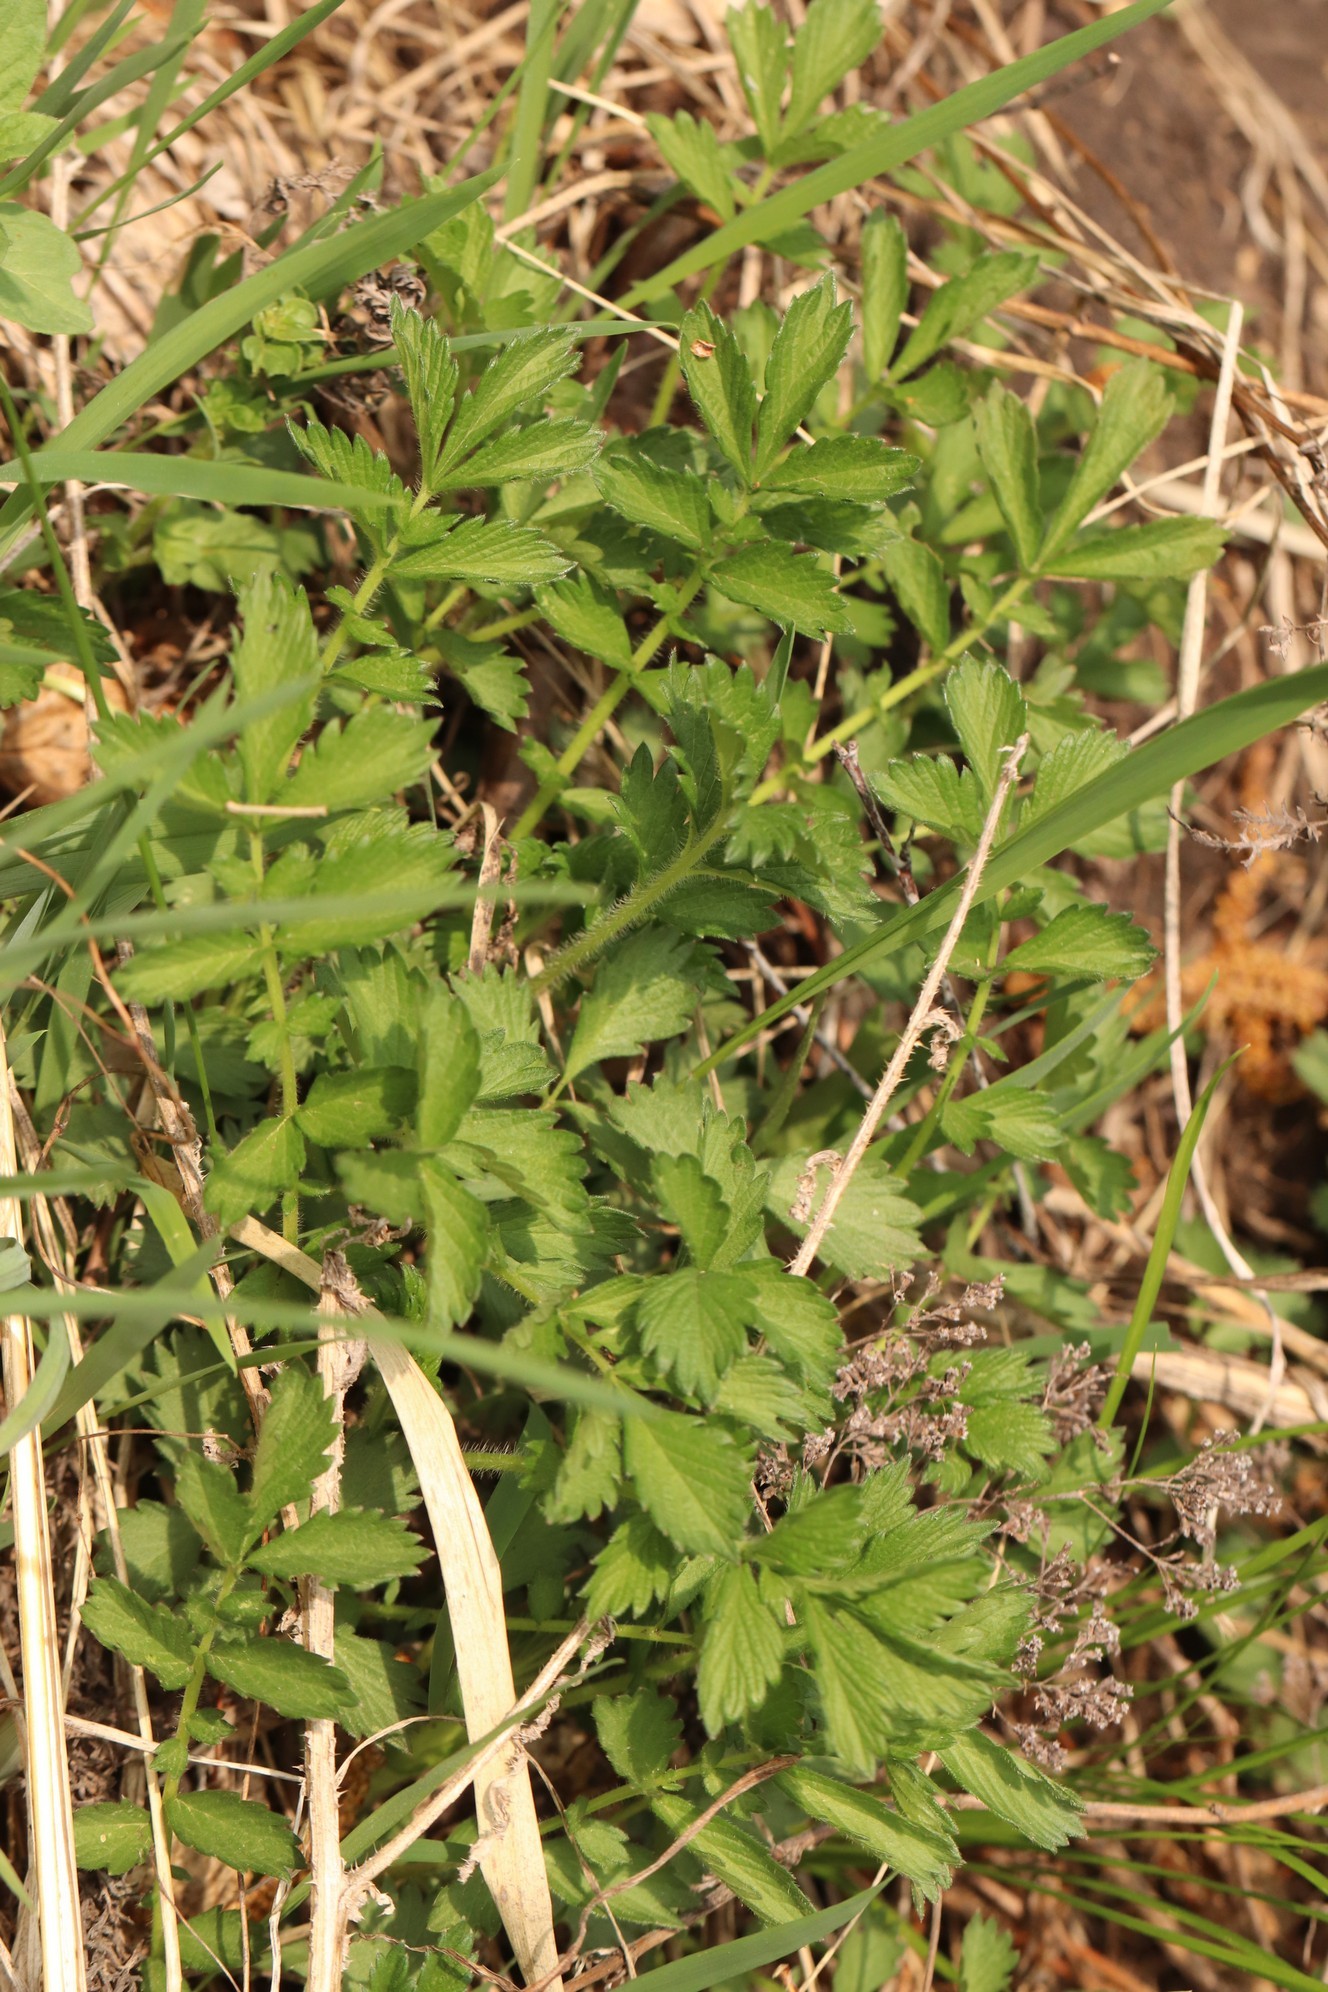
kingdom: Plantae
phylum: Tracheophyta
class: Magnoliopsida
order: Rosales
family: Rosaceae
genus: Agrimonia
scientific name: Agrimonia pilosa
